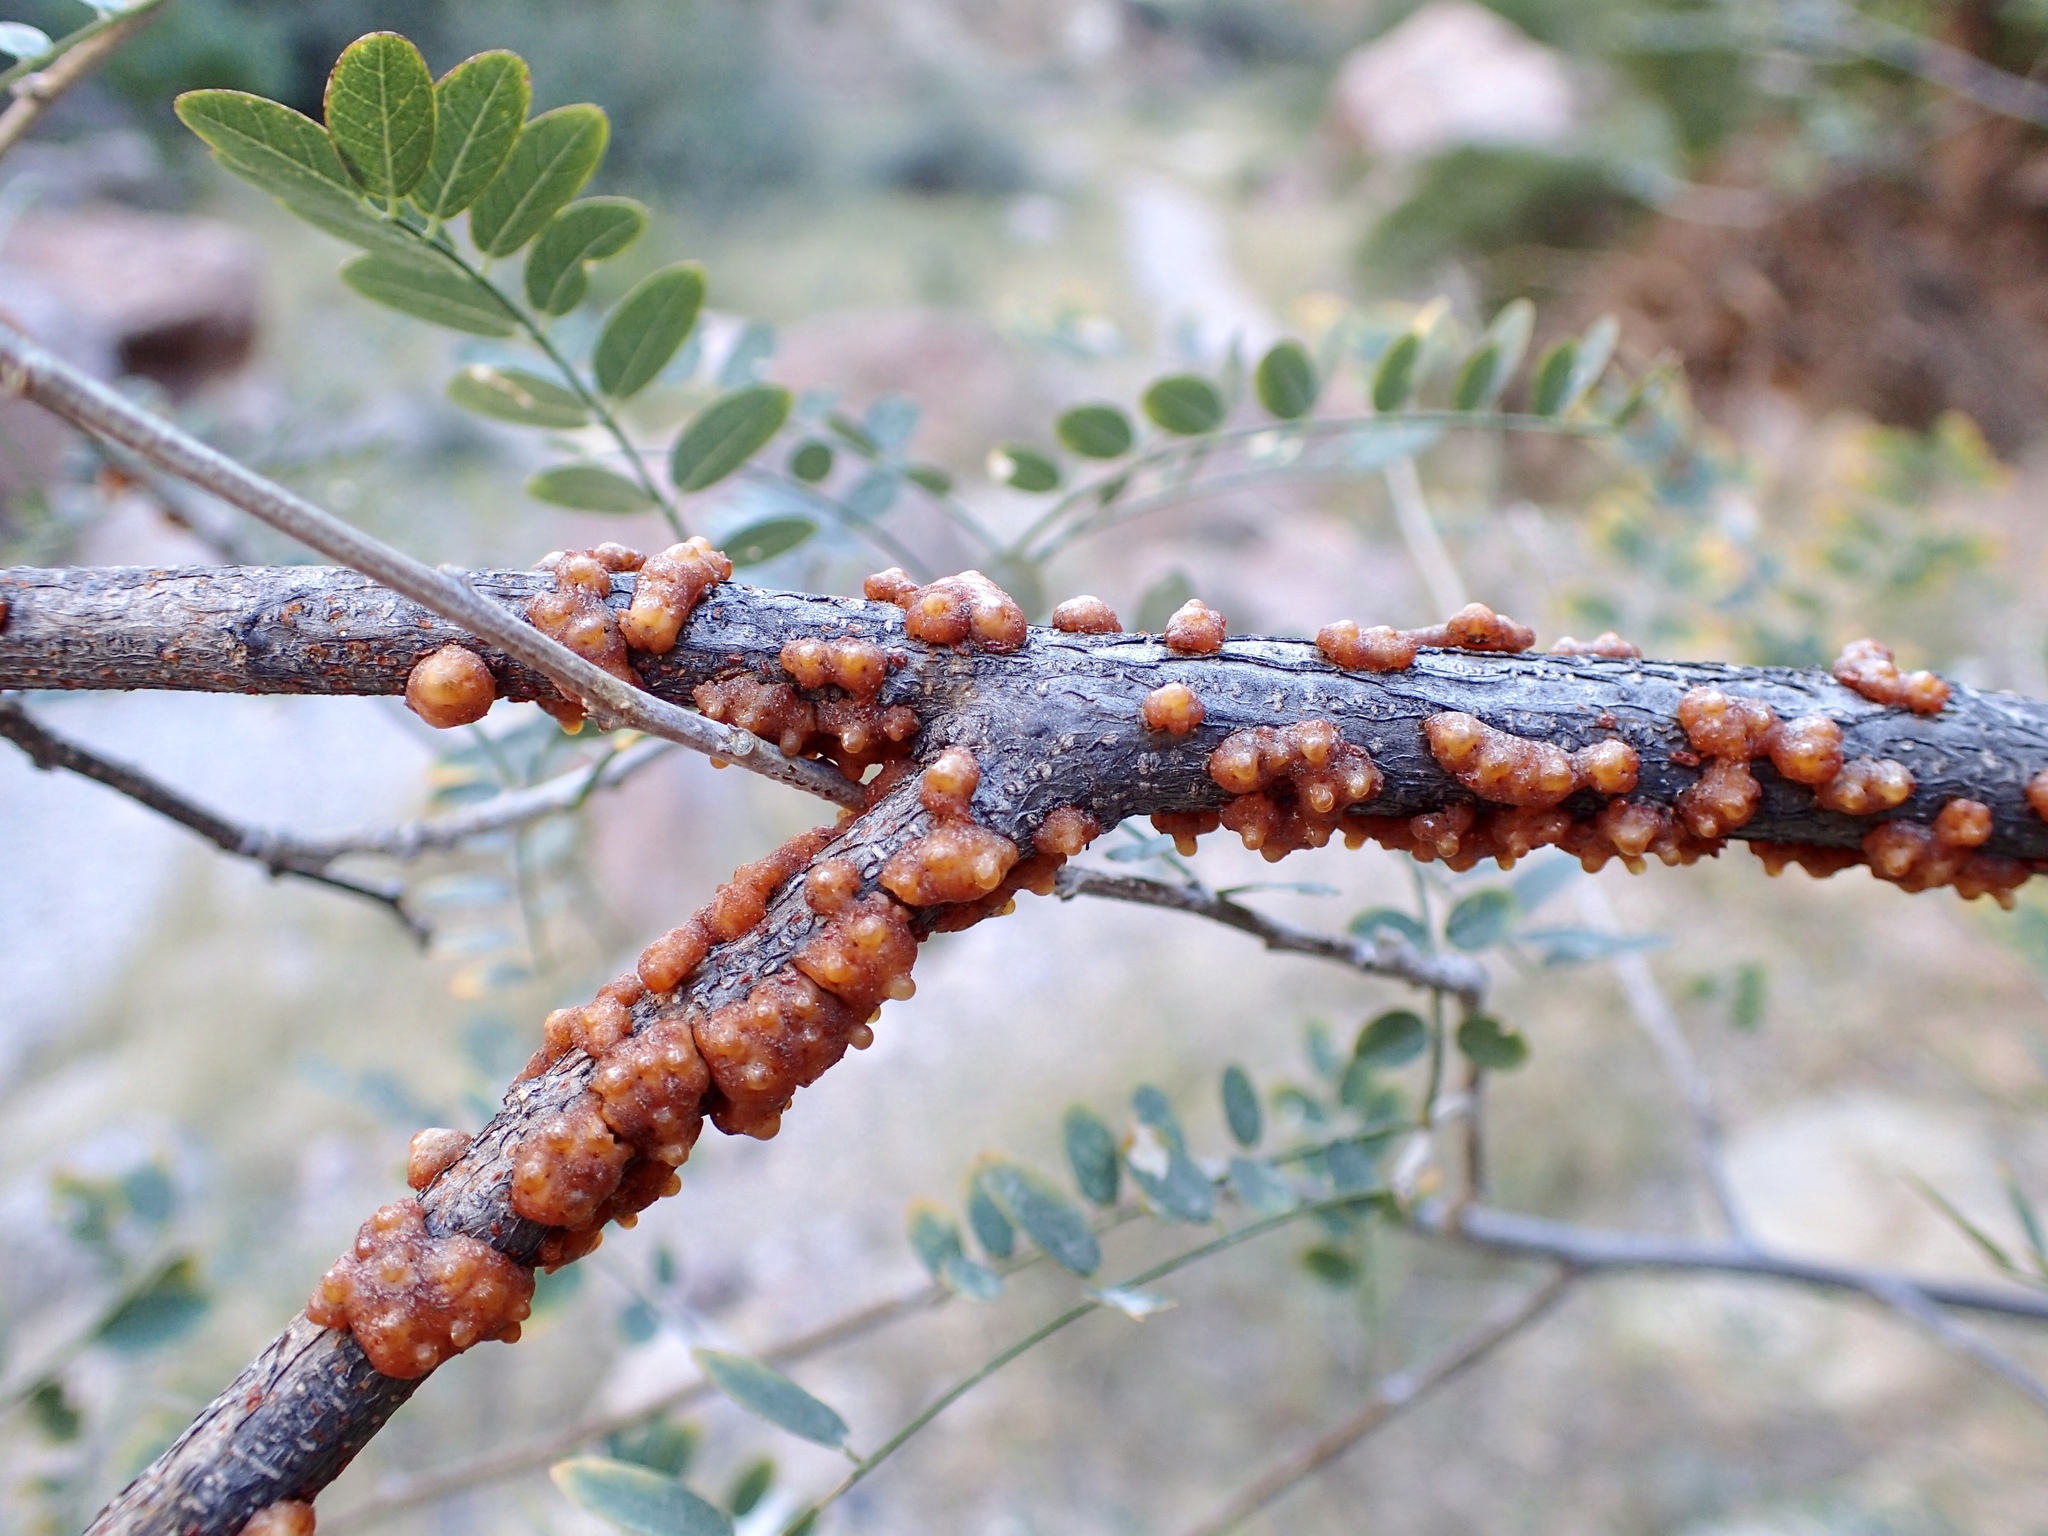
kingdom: Plantae
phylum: Tracheophyta
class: Magnoliopsida
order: Fabales
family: Fabaceae
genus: Coursetia
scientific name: Coursetia glandulosa
